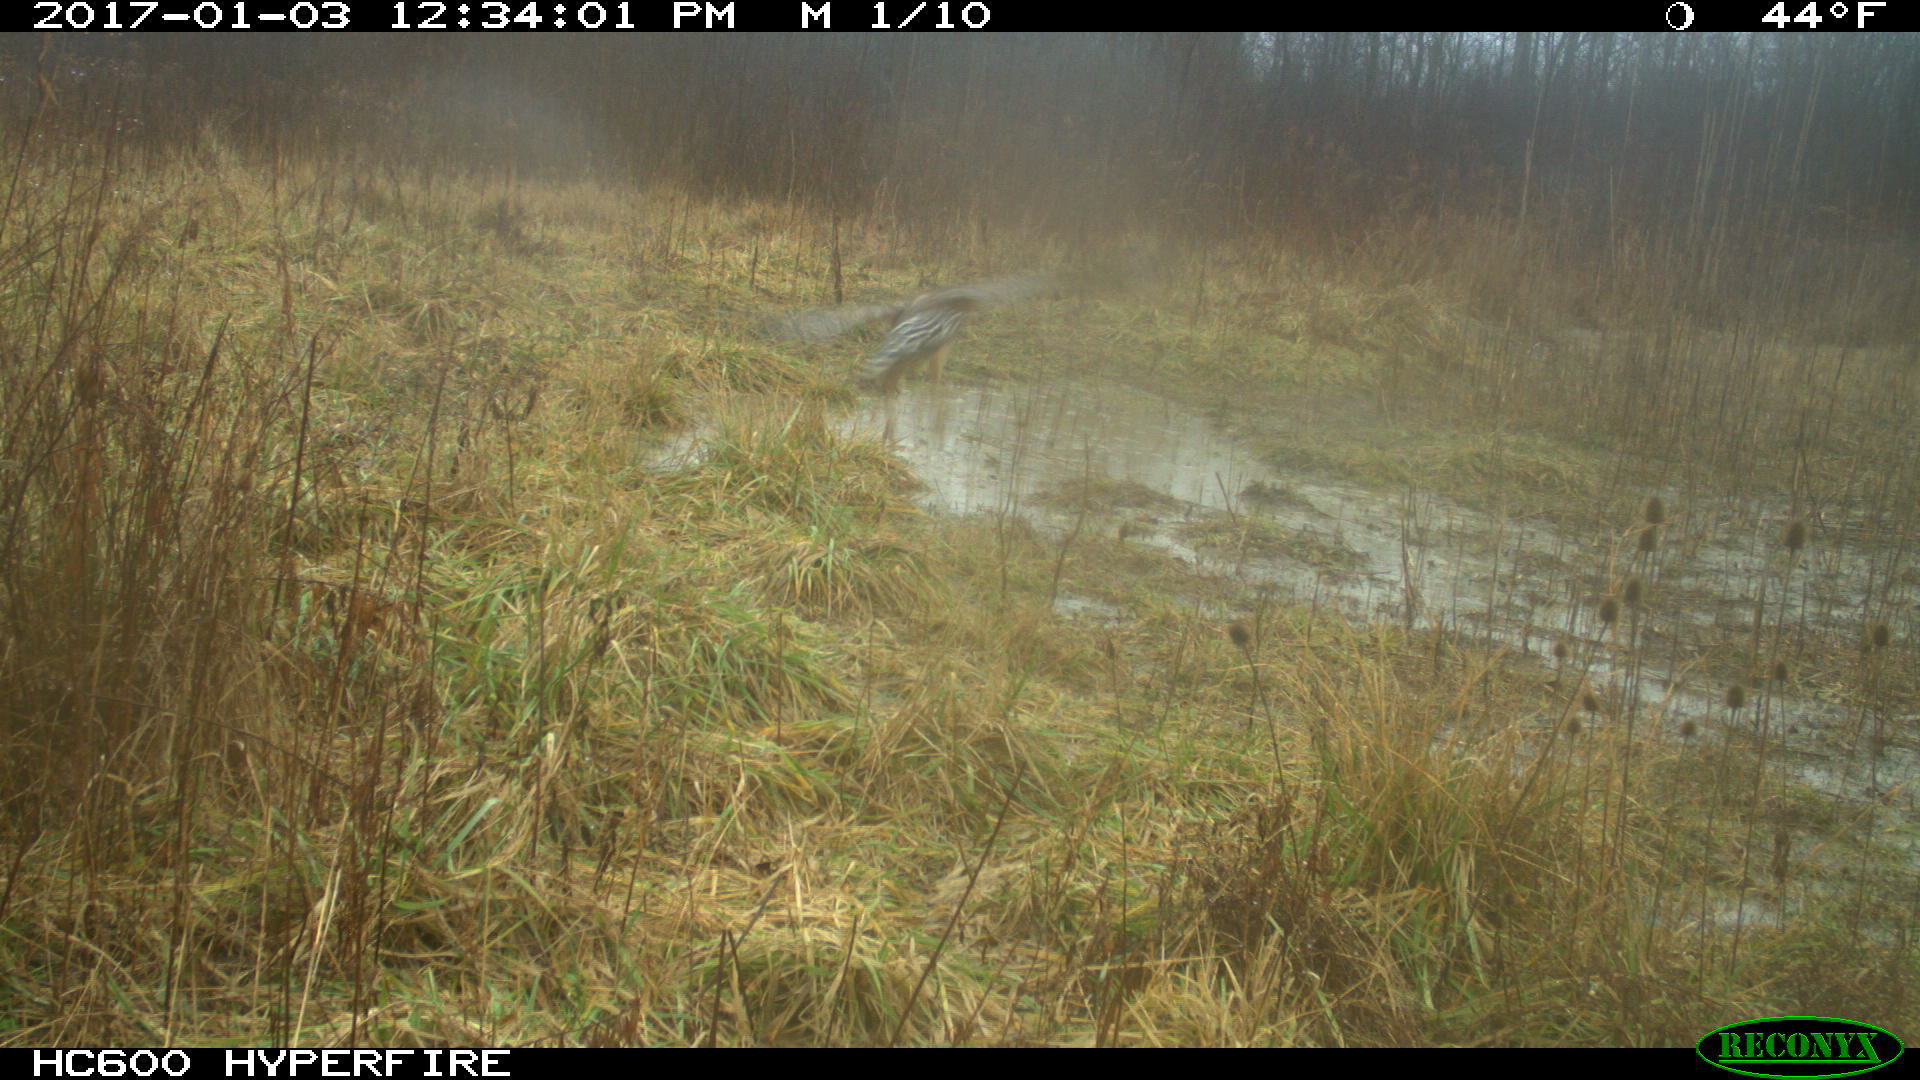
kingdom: Animalia
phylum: Chordata
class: Aves
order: Accipitriformes
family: Accipitridae
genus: Buteo
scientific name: Buteo lineatus
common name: Red-shouldered hawk
